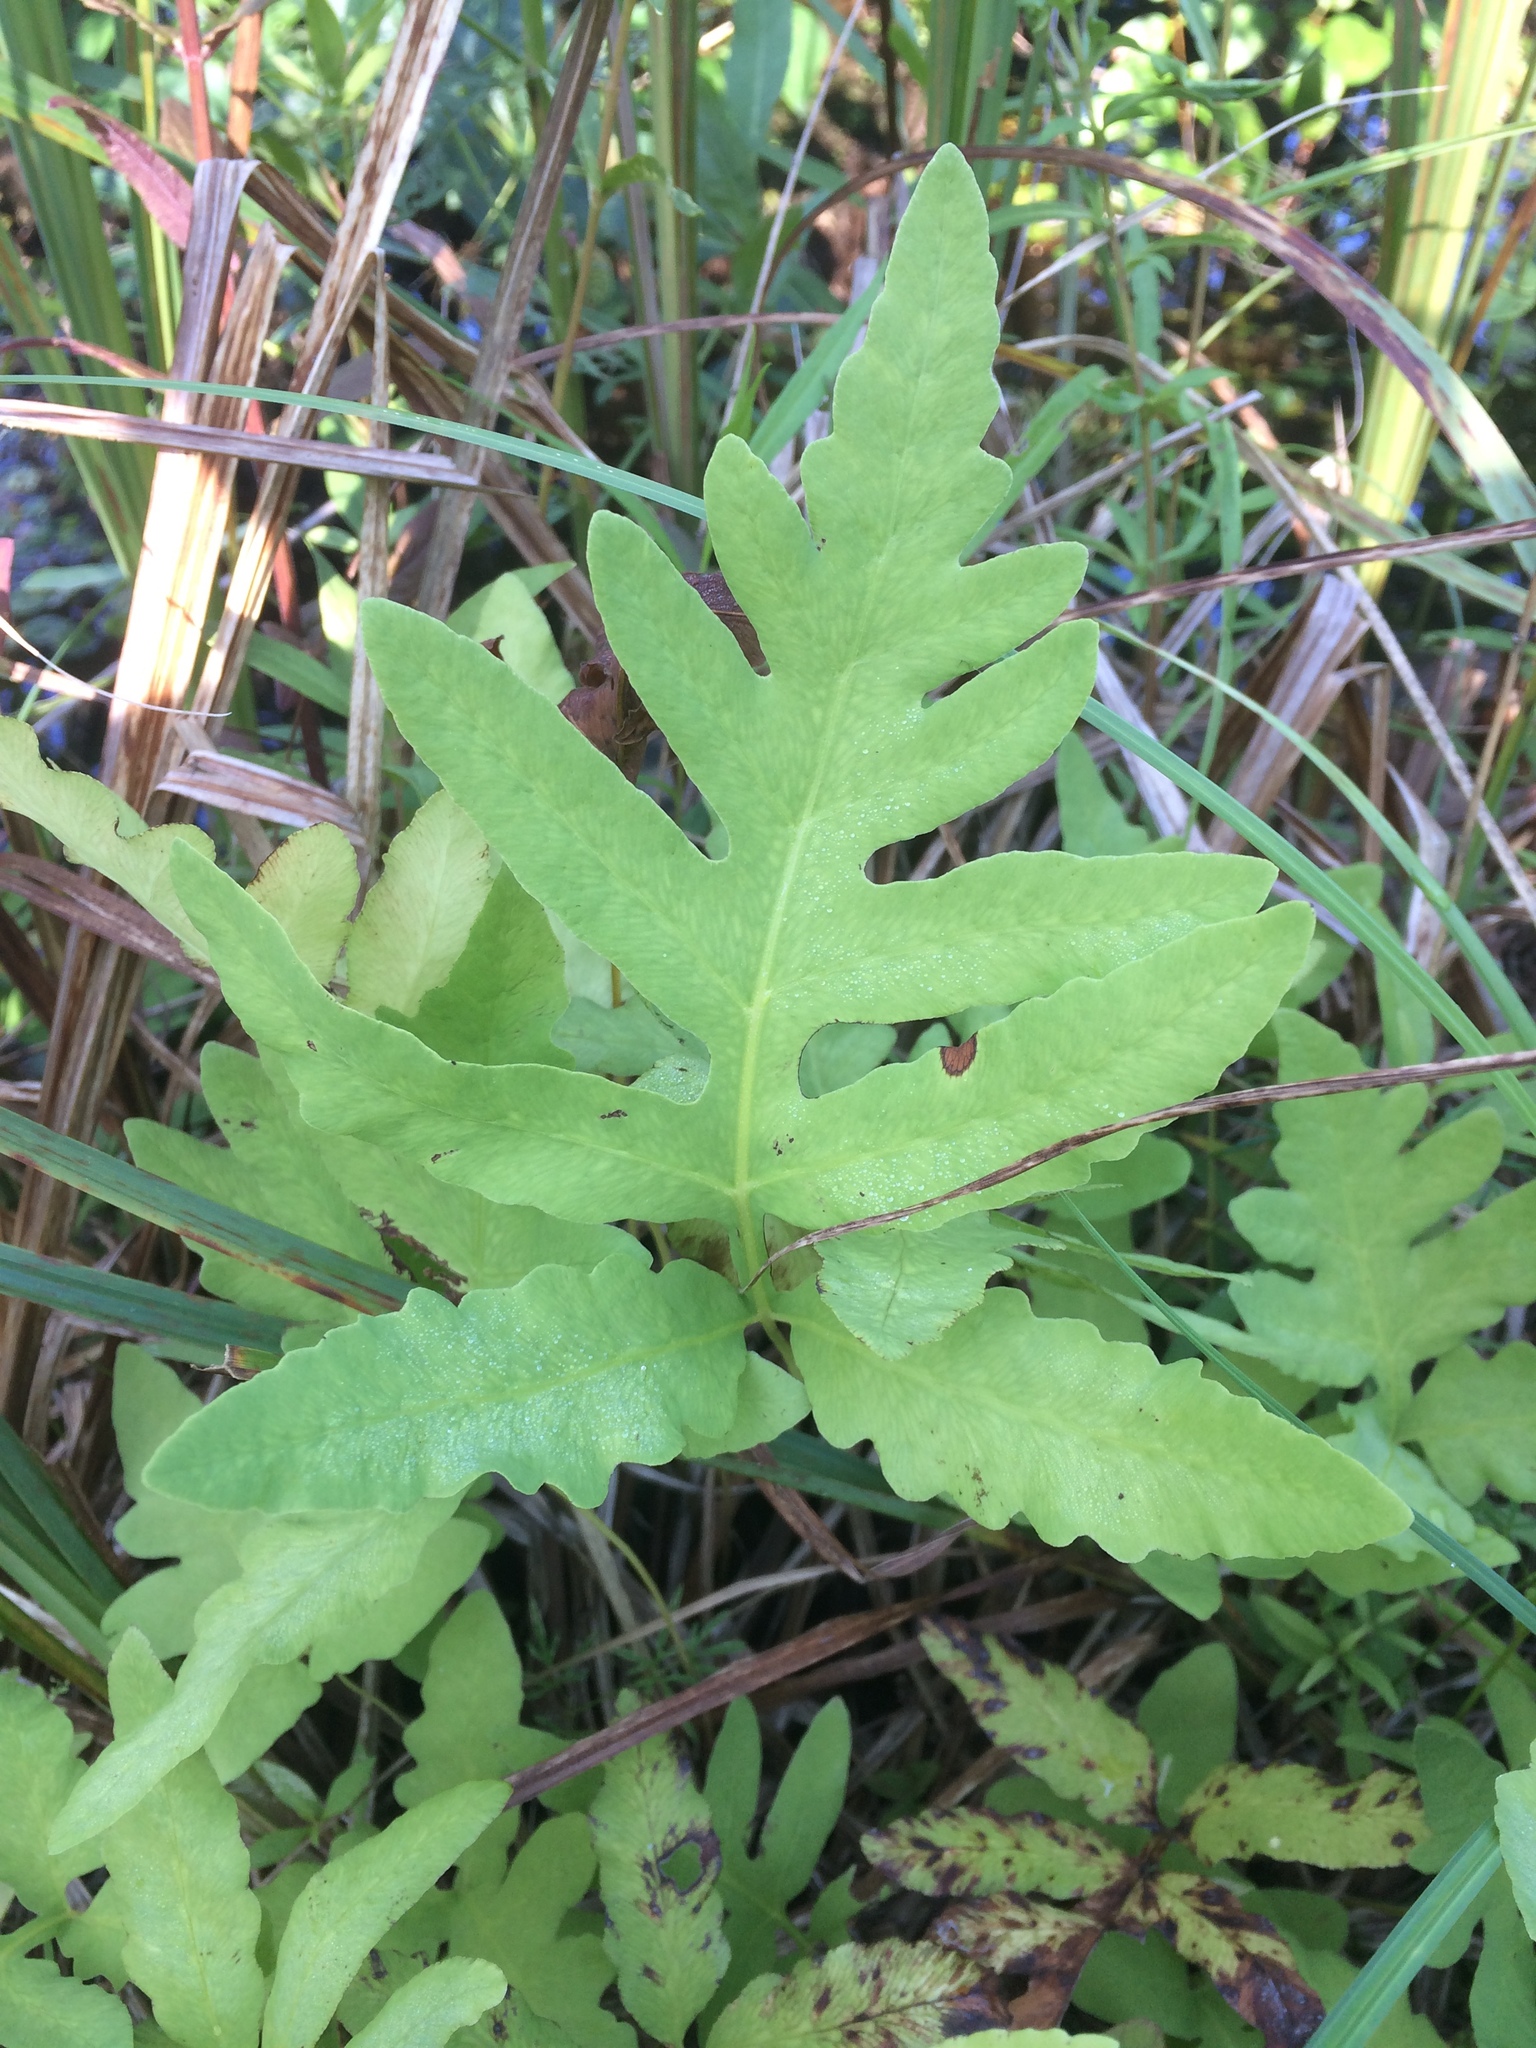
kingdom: Plantae
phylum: Tracheophyta
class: Polypodiopsida
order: Polypodiales
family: Onocleaceae
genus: Onoclea
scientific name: Onoclea sensibilis
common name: Sensitive fern
